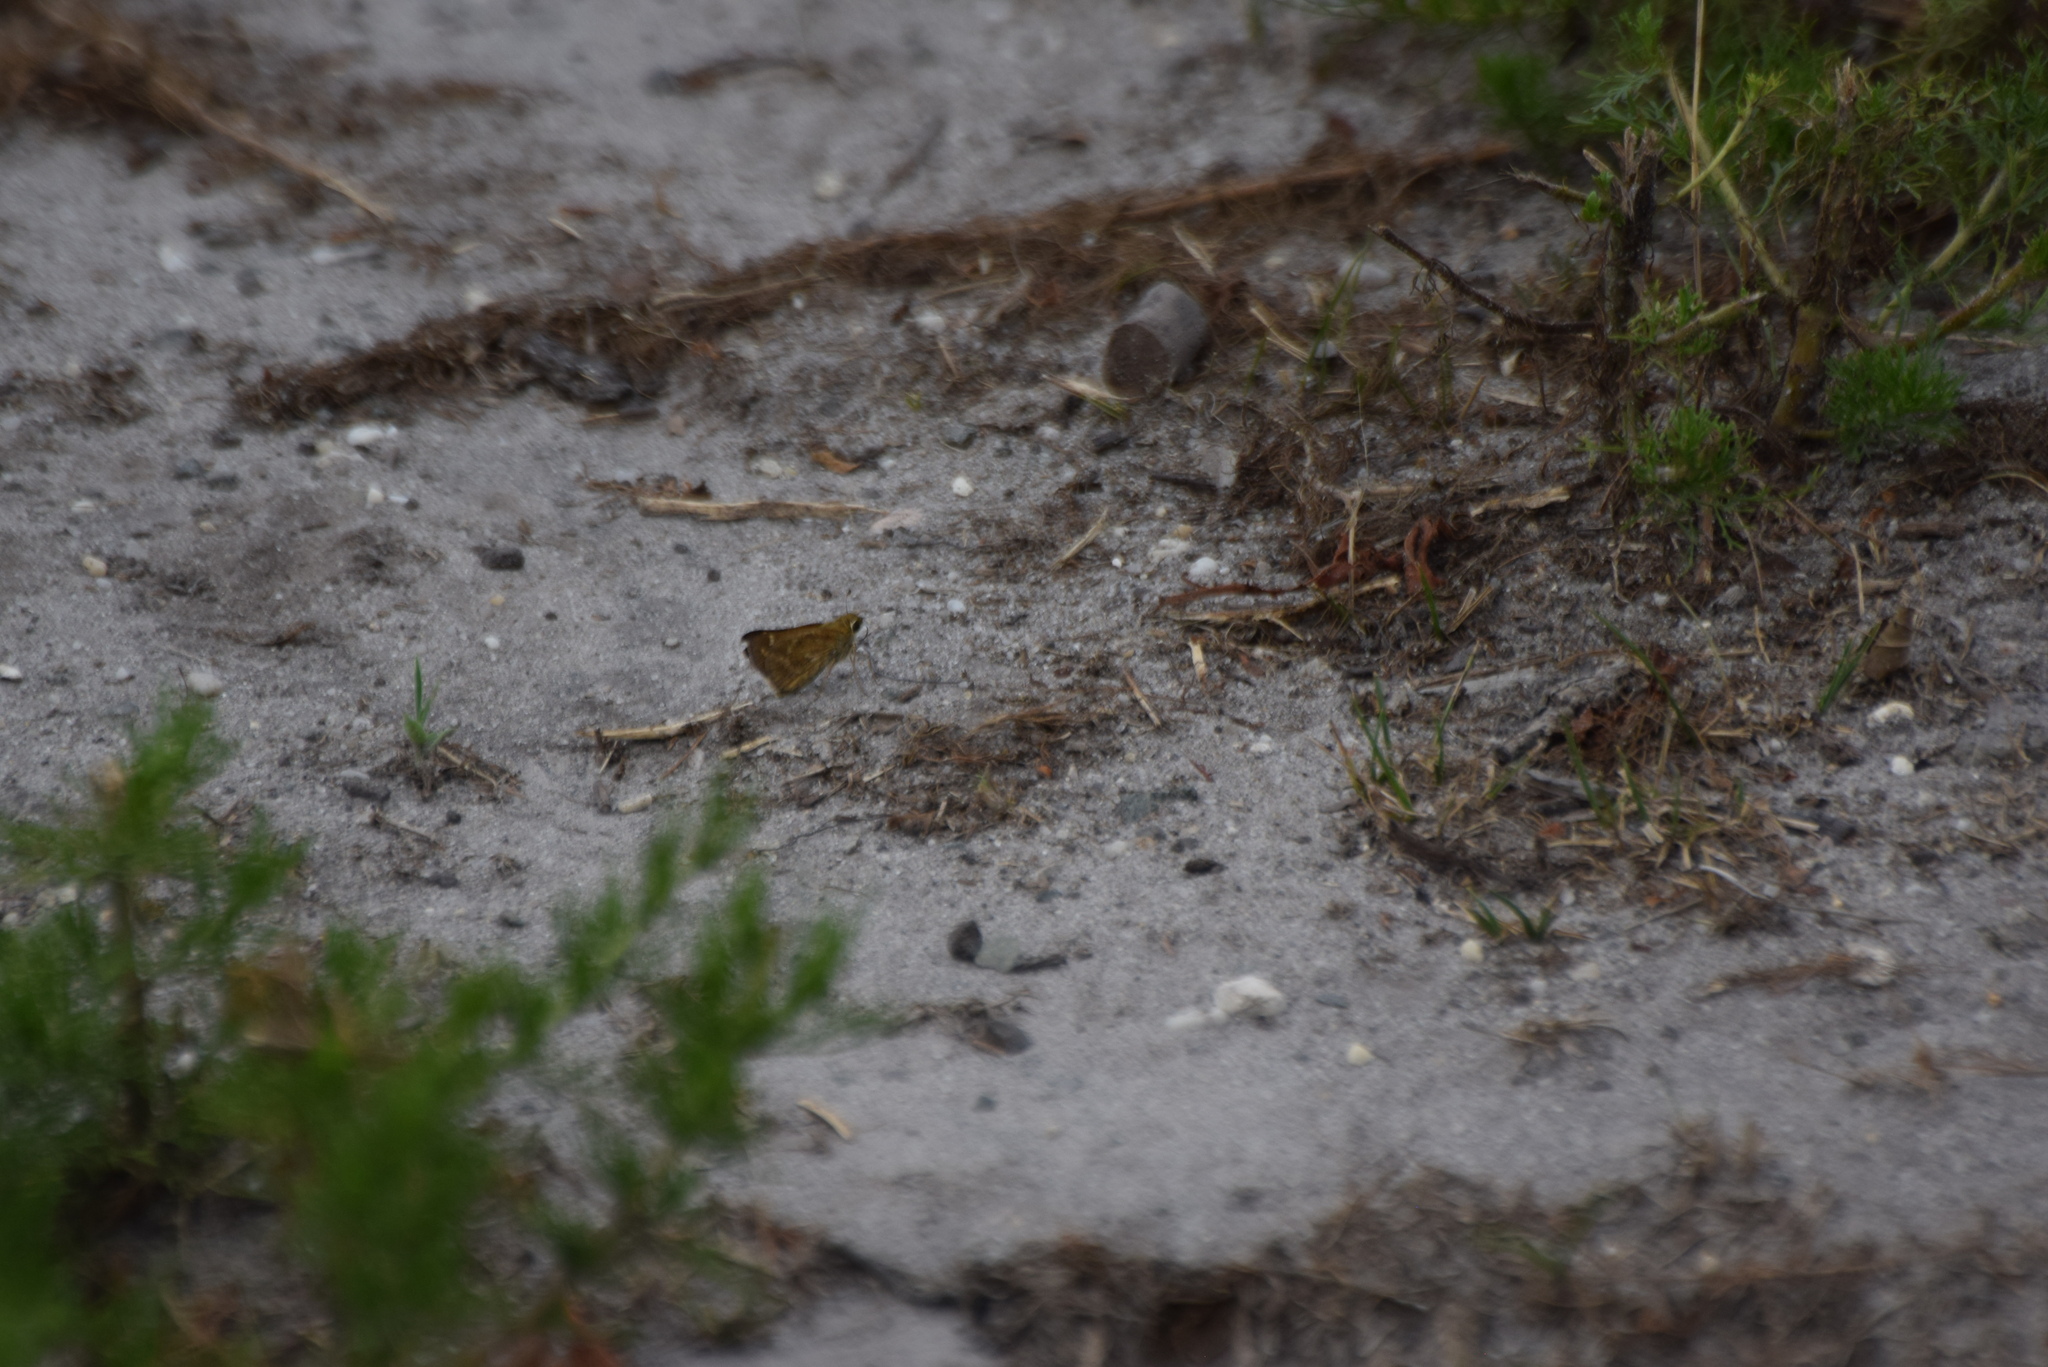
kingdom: Animalia
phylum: Arthropoda
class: Insecta
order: Lepidoptera
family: Hesperiidae
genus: Atalopedes
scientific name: Atalopedes
